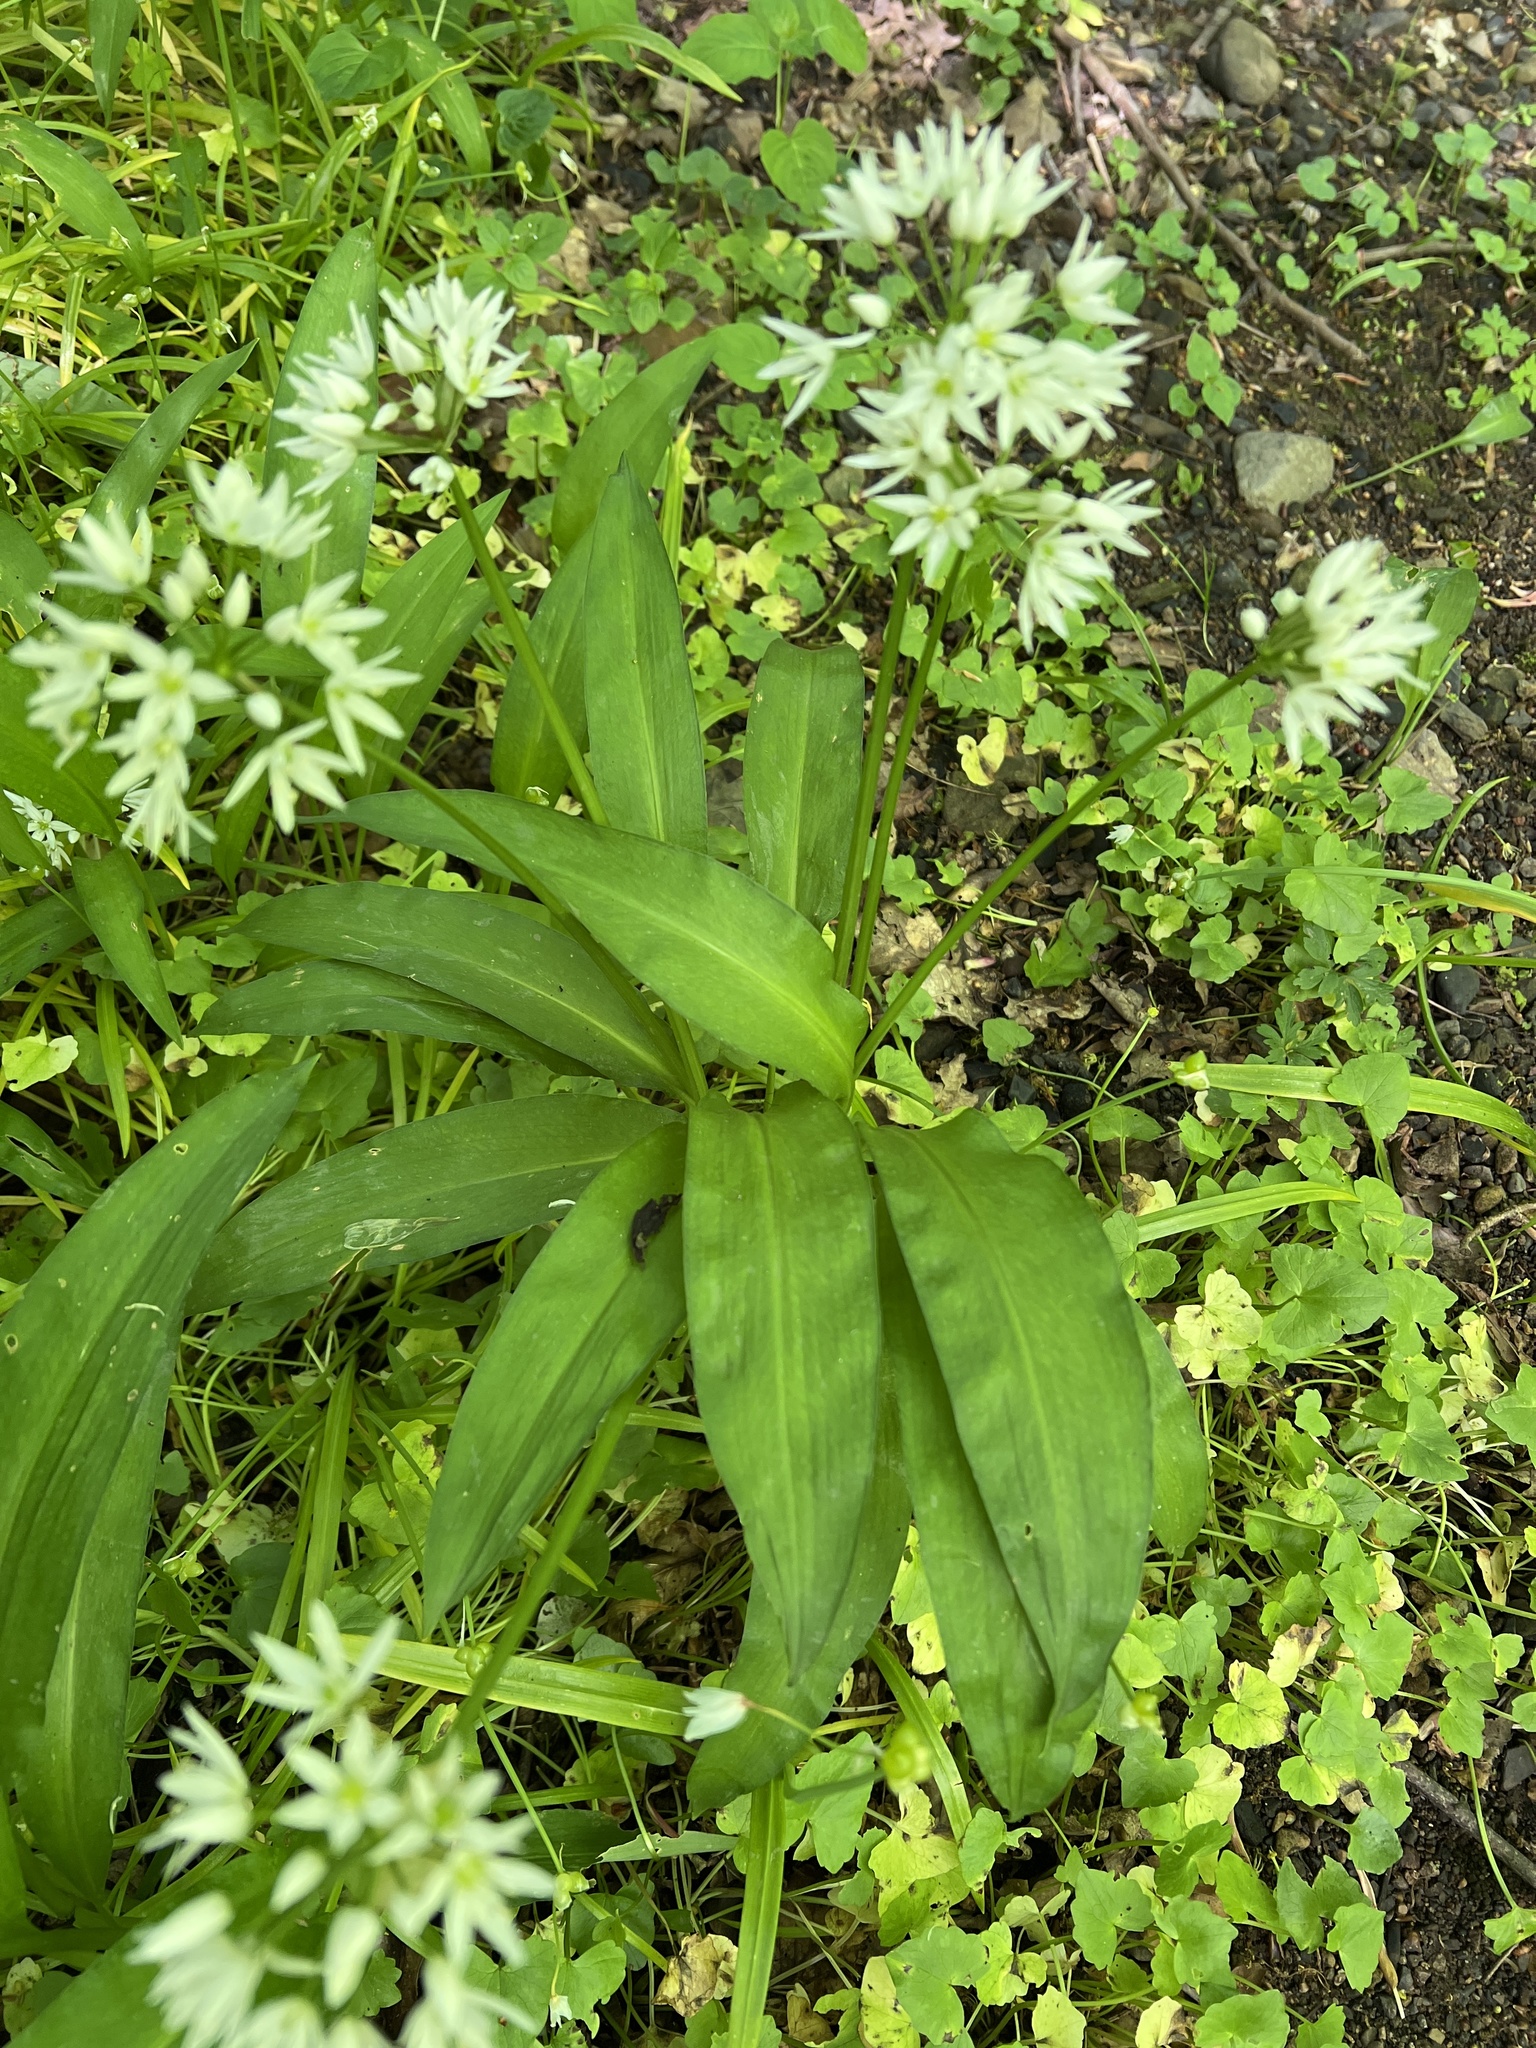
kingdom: Plantae
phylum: Tracheophyta
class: Liliopsida
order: Asparagales
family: Amaryllidaceae
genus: Allium
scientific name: Allium ursinum
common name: Ramsons
